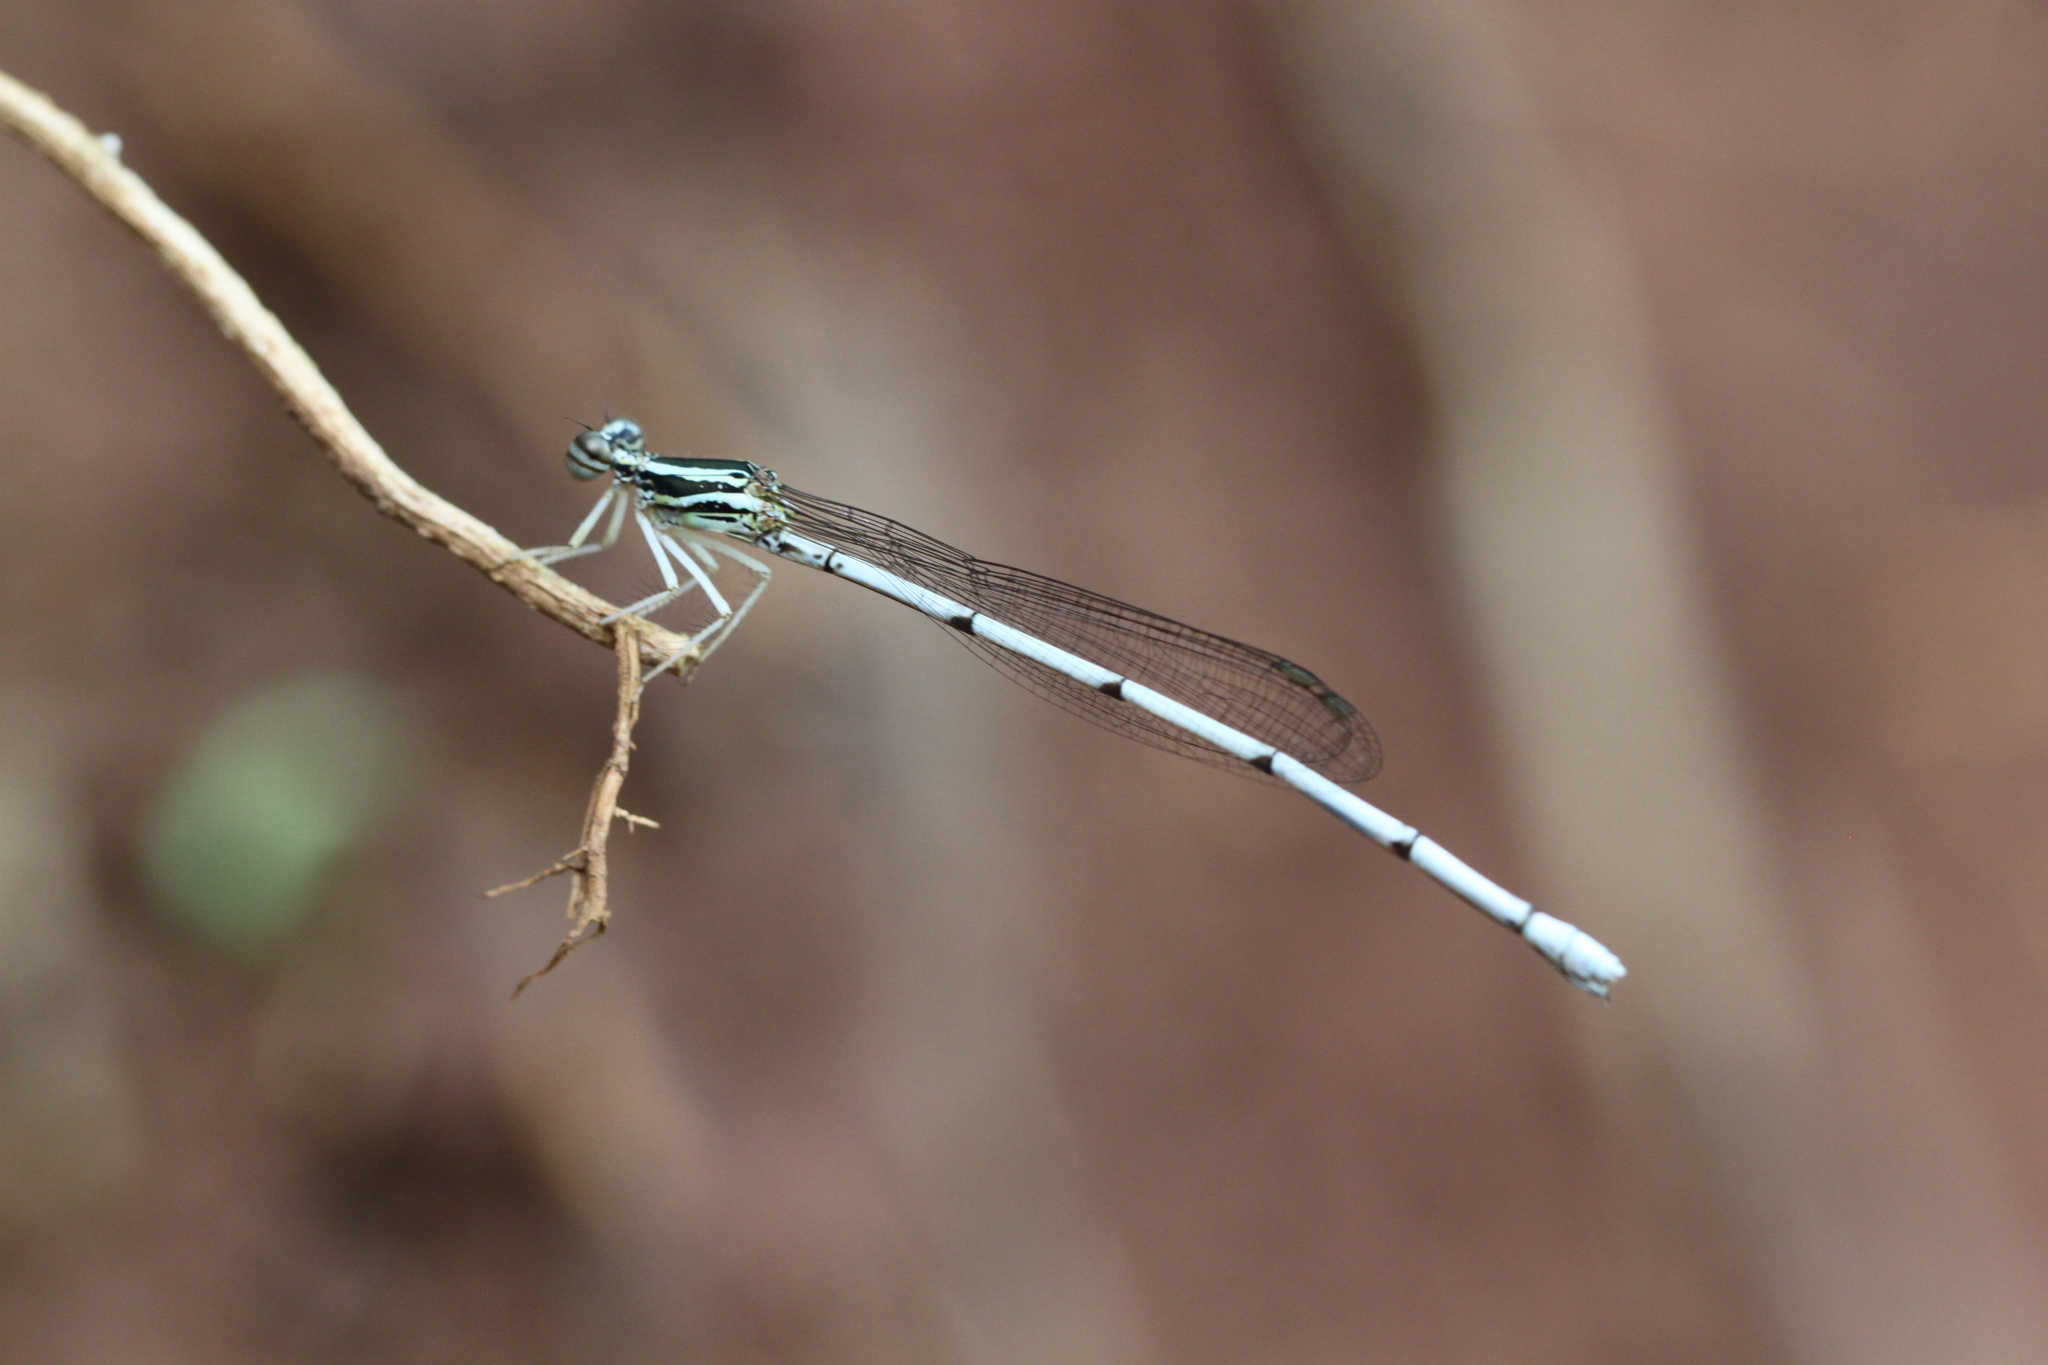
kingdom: Animalia
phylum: Arthropoda
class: Insecta
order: Odonata
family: Platycnemididae
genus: Copera
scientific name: Copera marginipes
